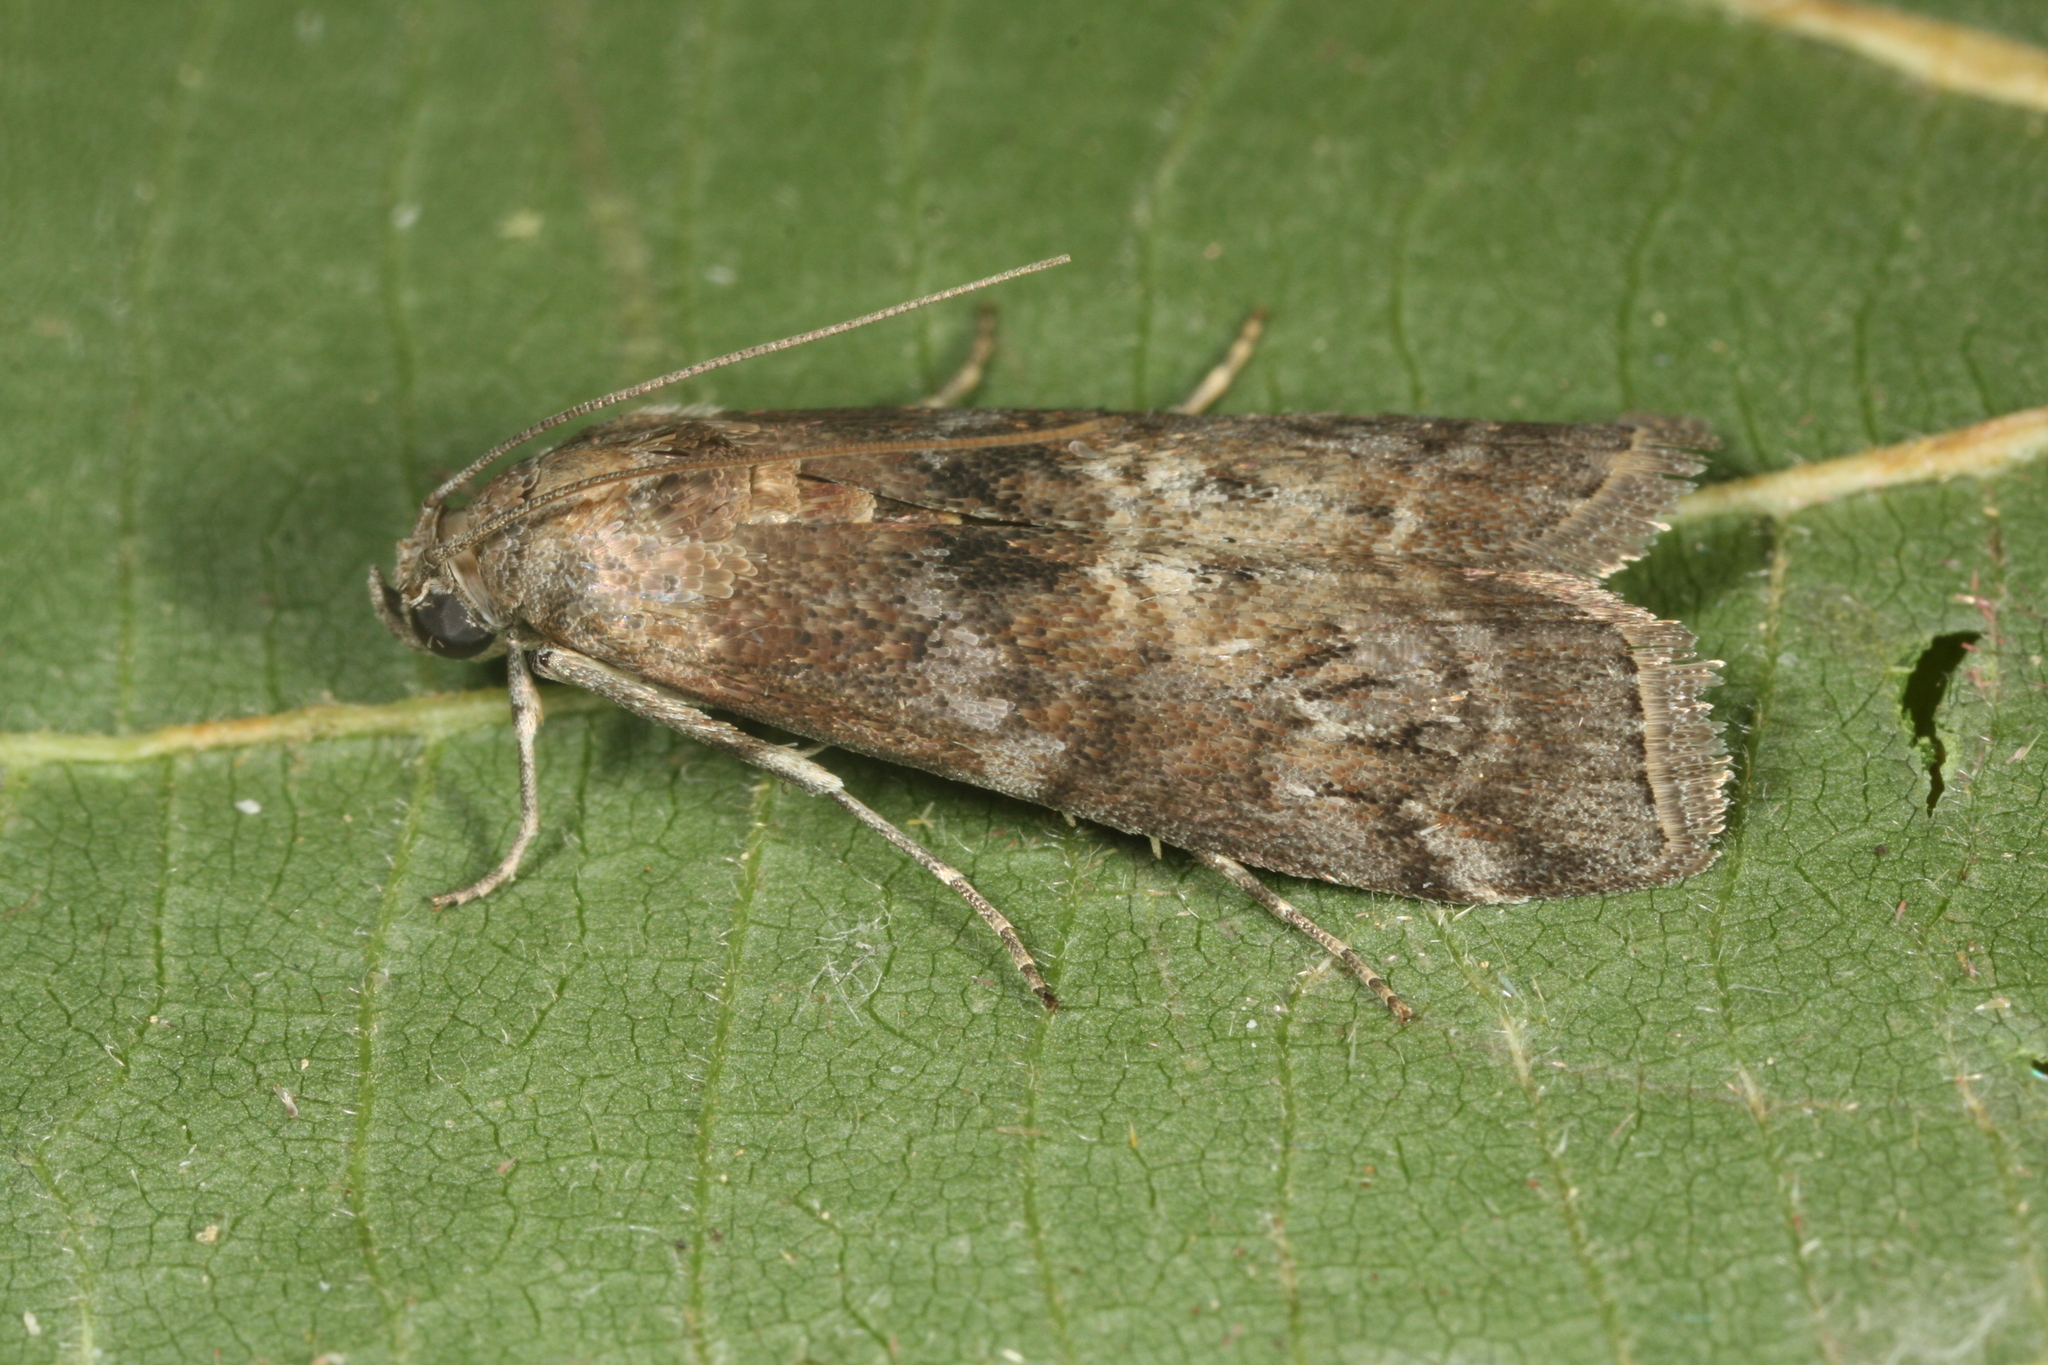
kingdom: Animalia
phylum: Arthropoda
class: Insecta
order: Lepidoptera
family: Pyralidae
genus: Phycita
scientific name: Phycita roborella
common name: Dotted oak knot-horn
